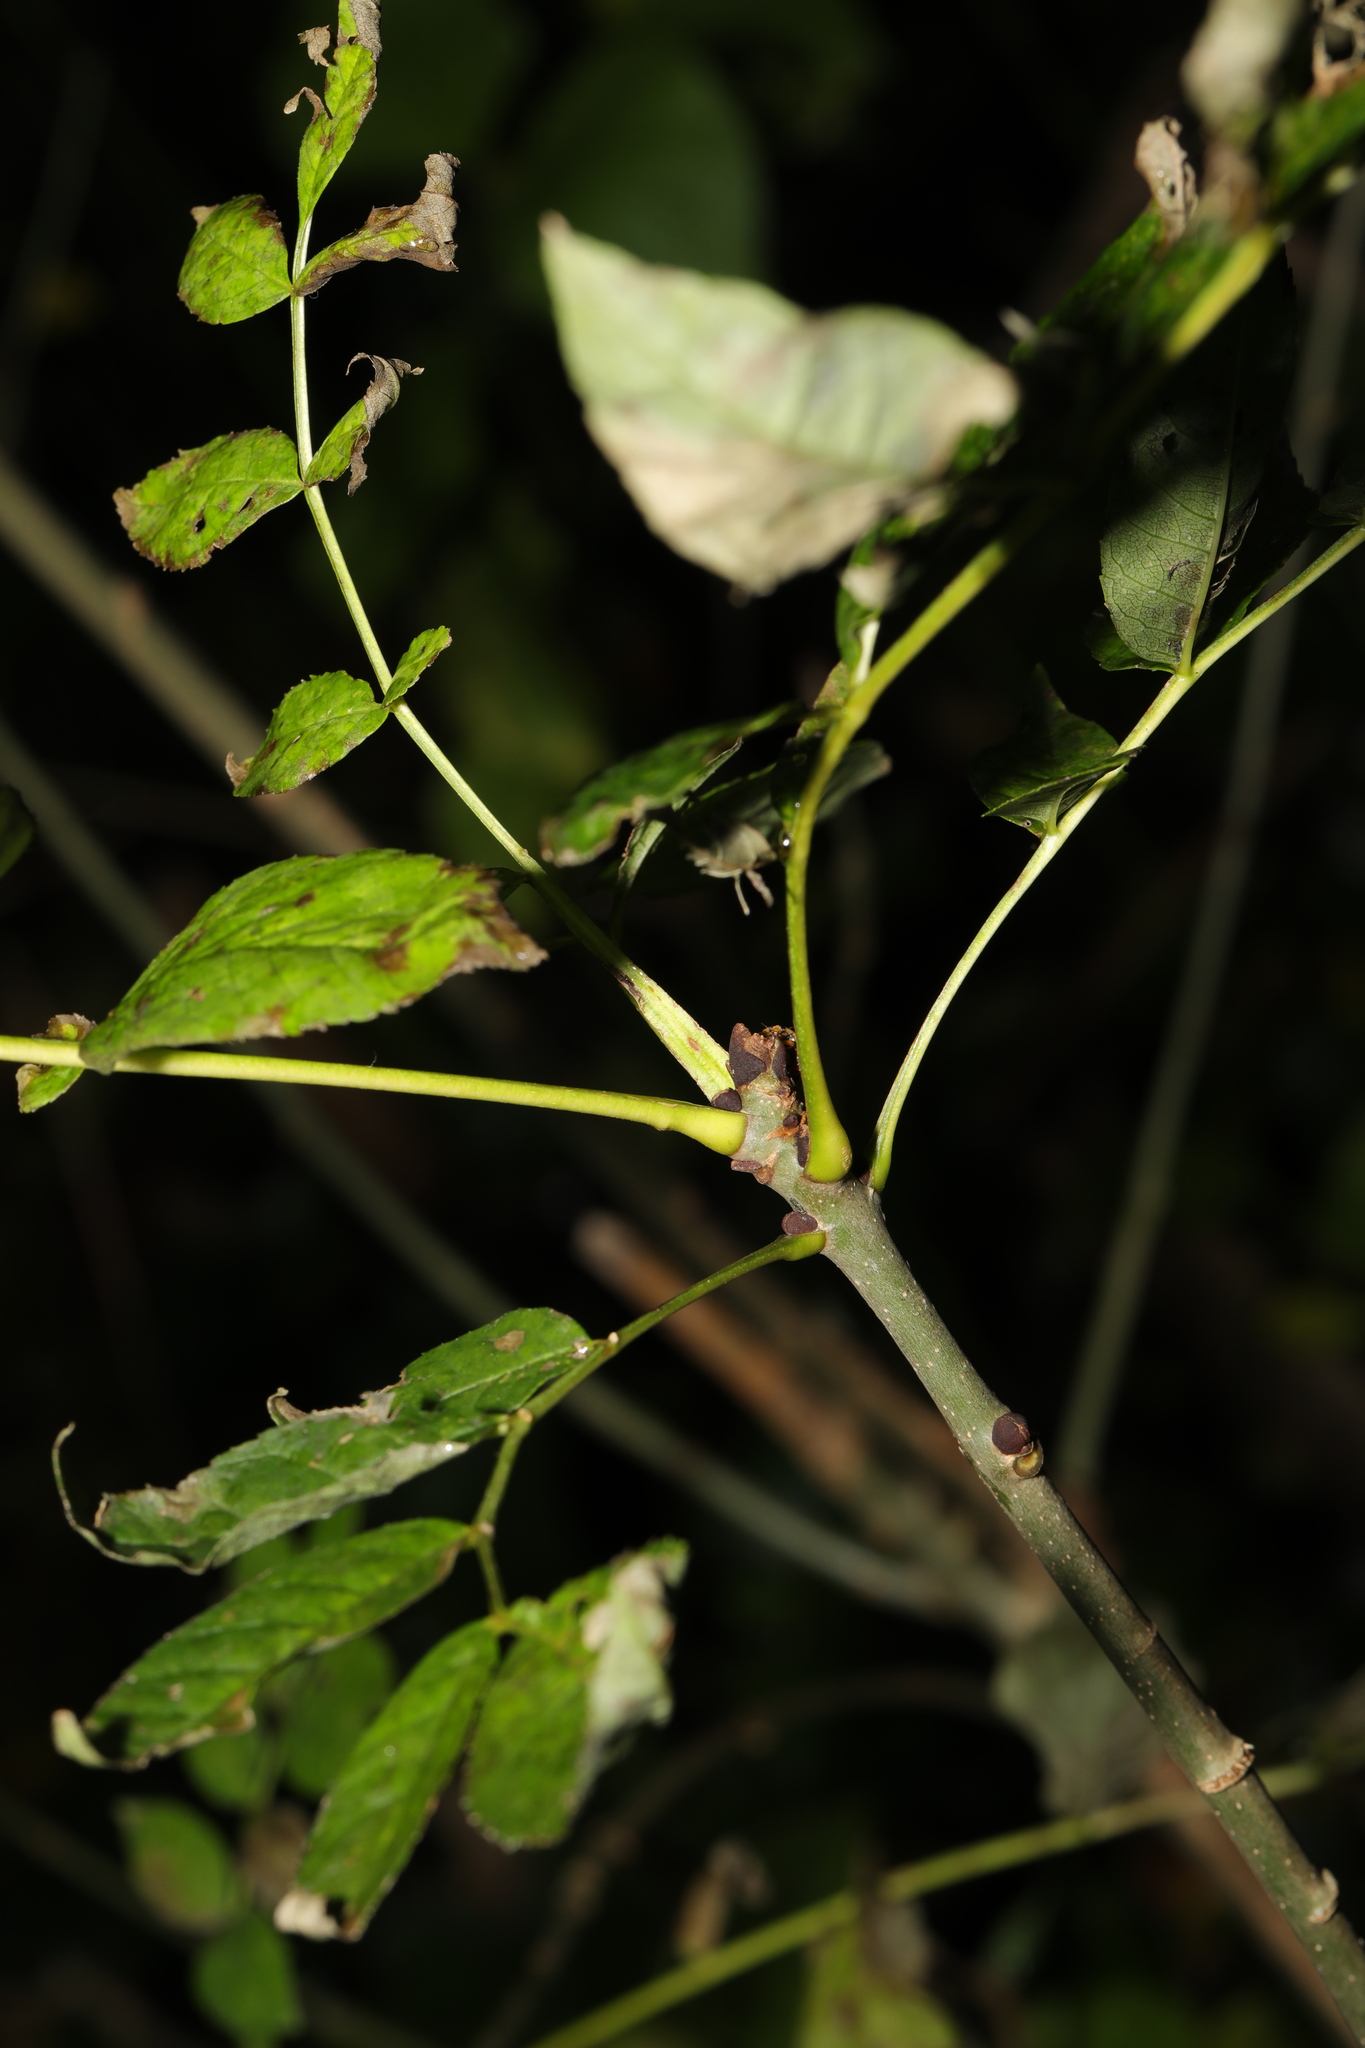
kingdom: Plantae
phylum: Tracheophyta
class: Magnoliopsida
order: Lamiales
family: Oleaceae
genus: Fraxinus
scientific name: Fraxinus excelsior
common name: European ash
